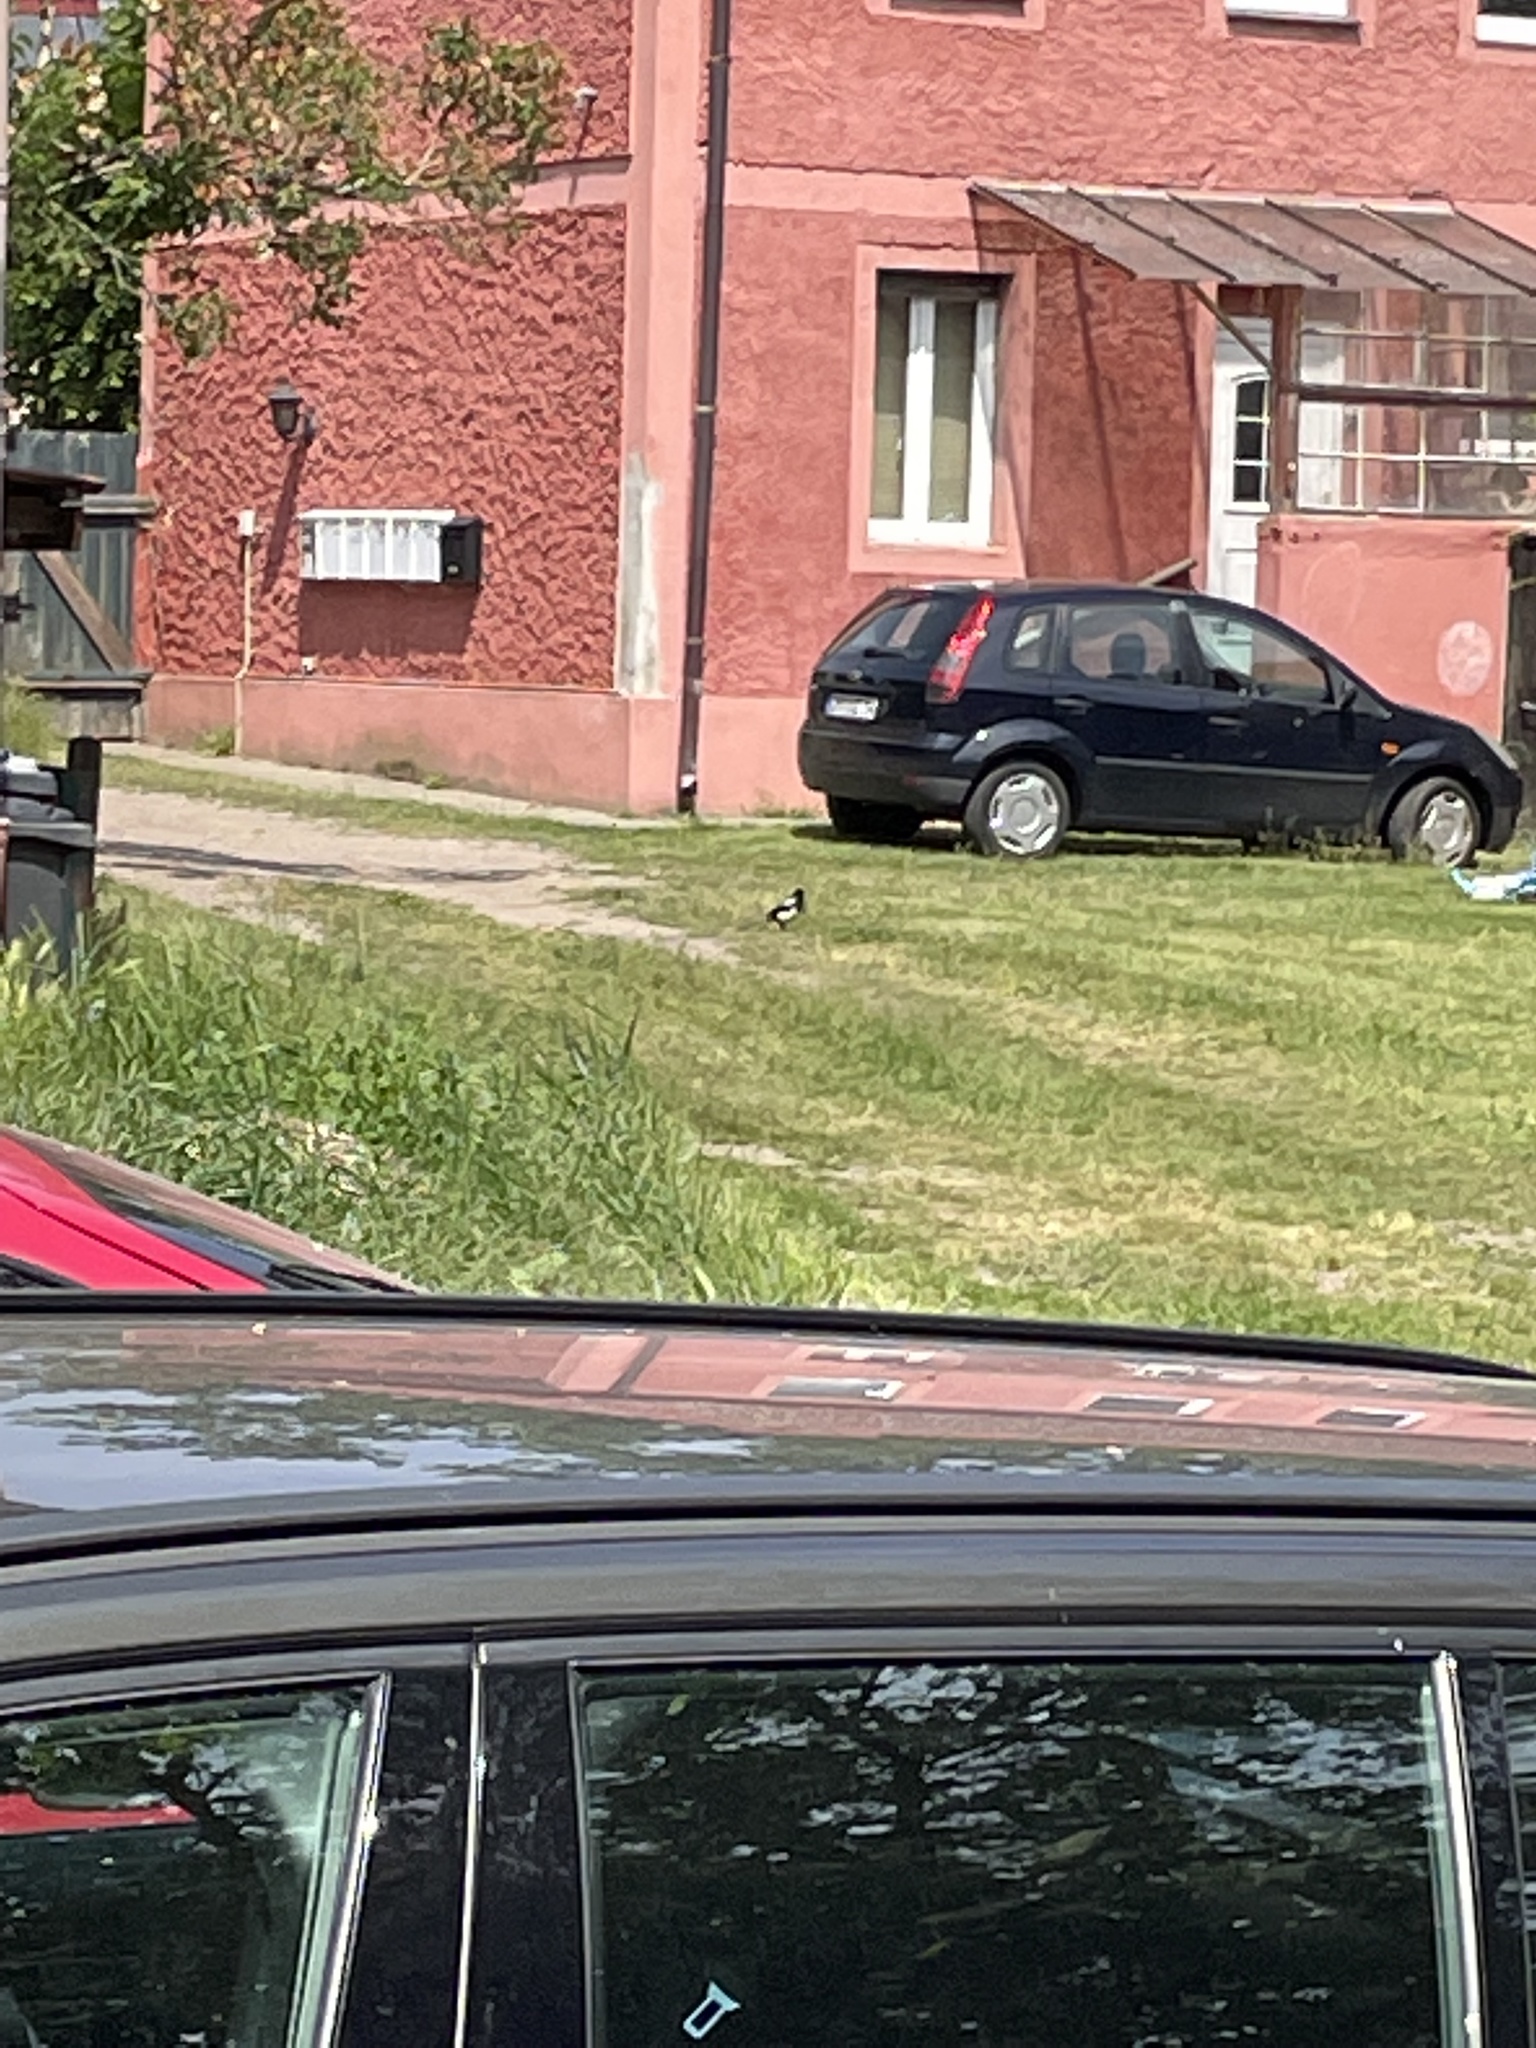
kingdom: Animalia
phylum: Chordata
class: Aves
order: Passeriformes
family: Corvidae
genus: Pica
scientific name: Pica pica
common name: Eurasian magpie
